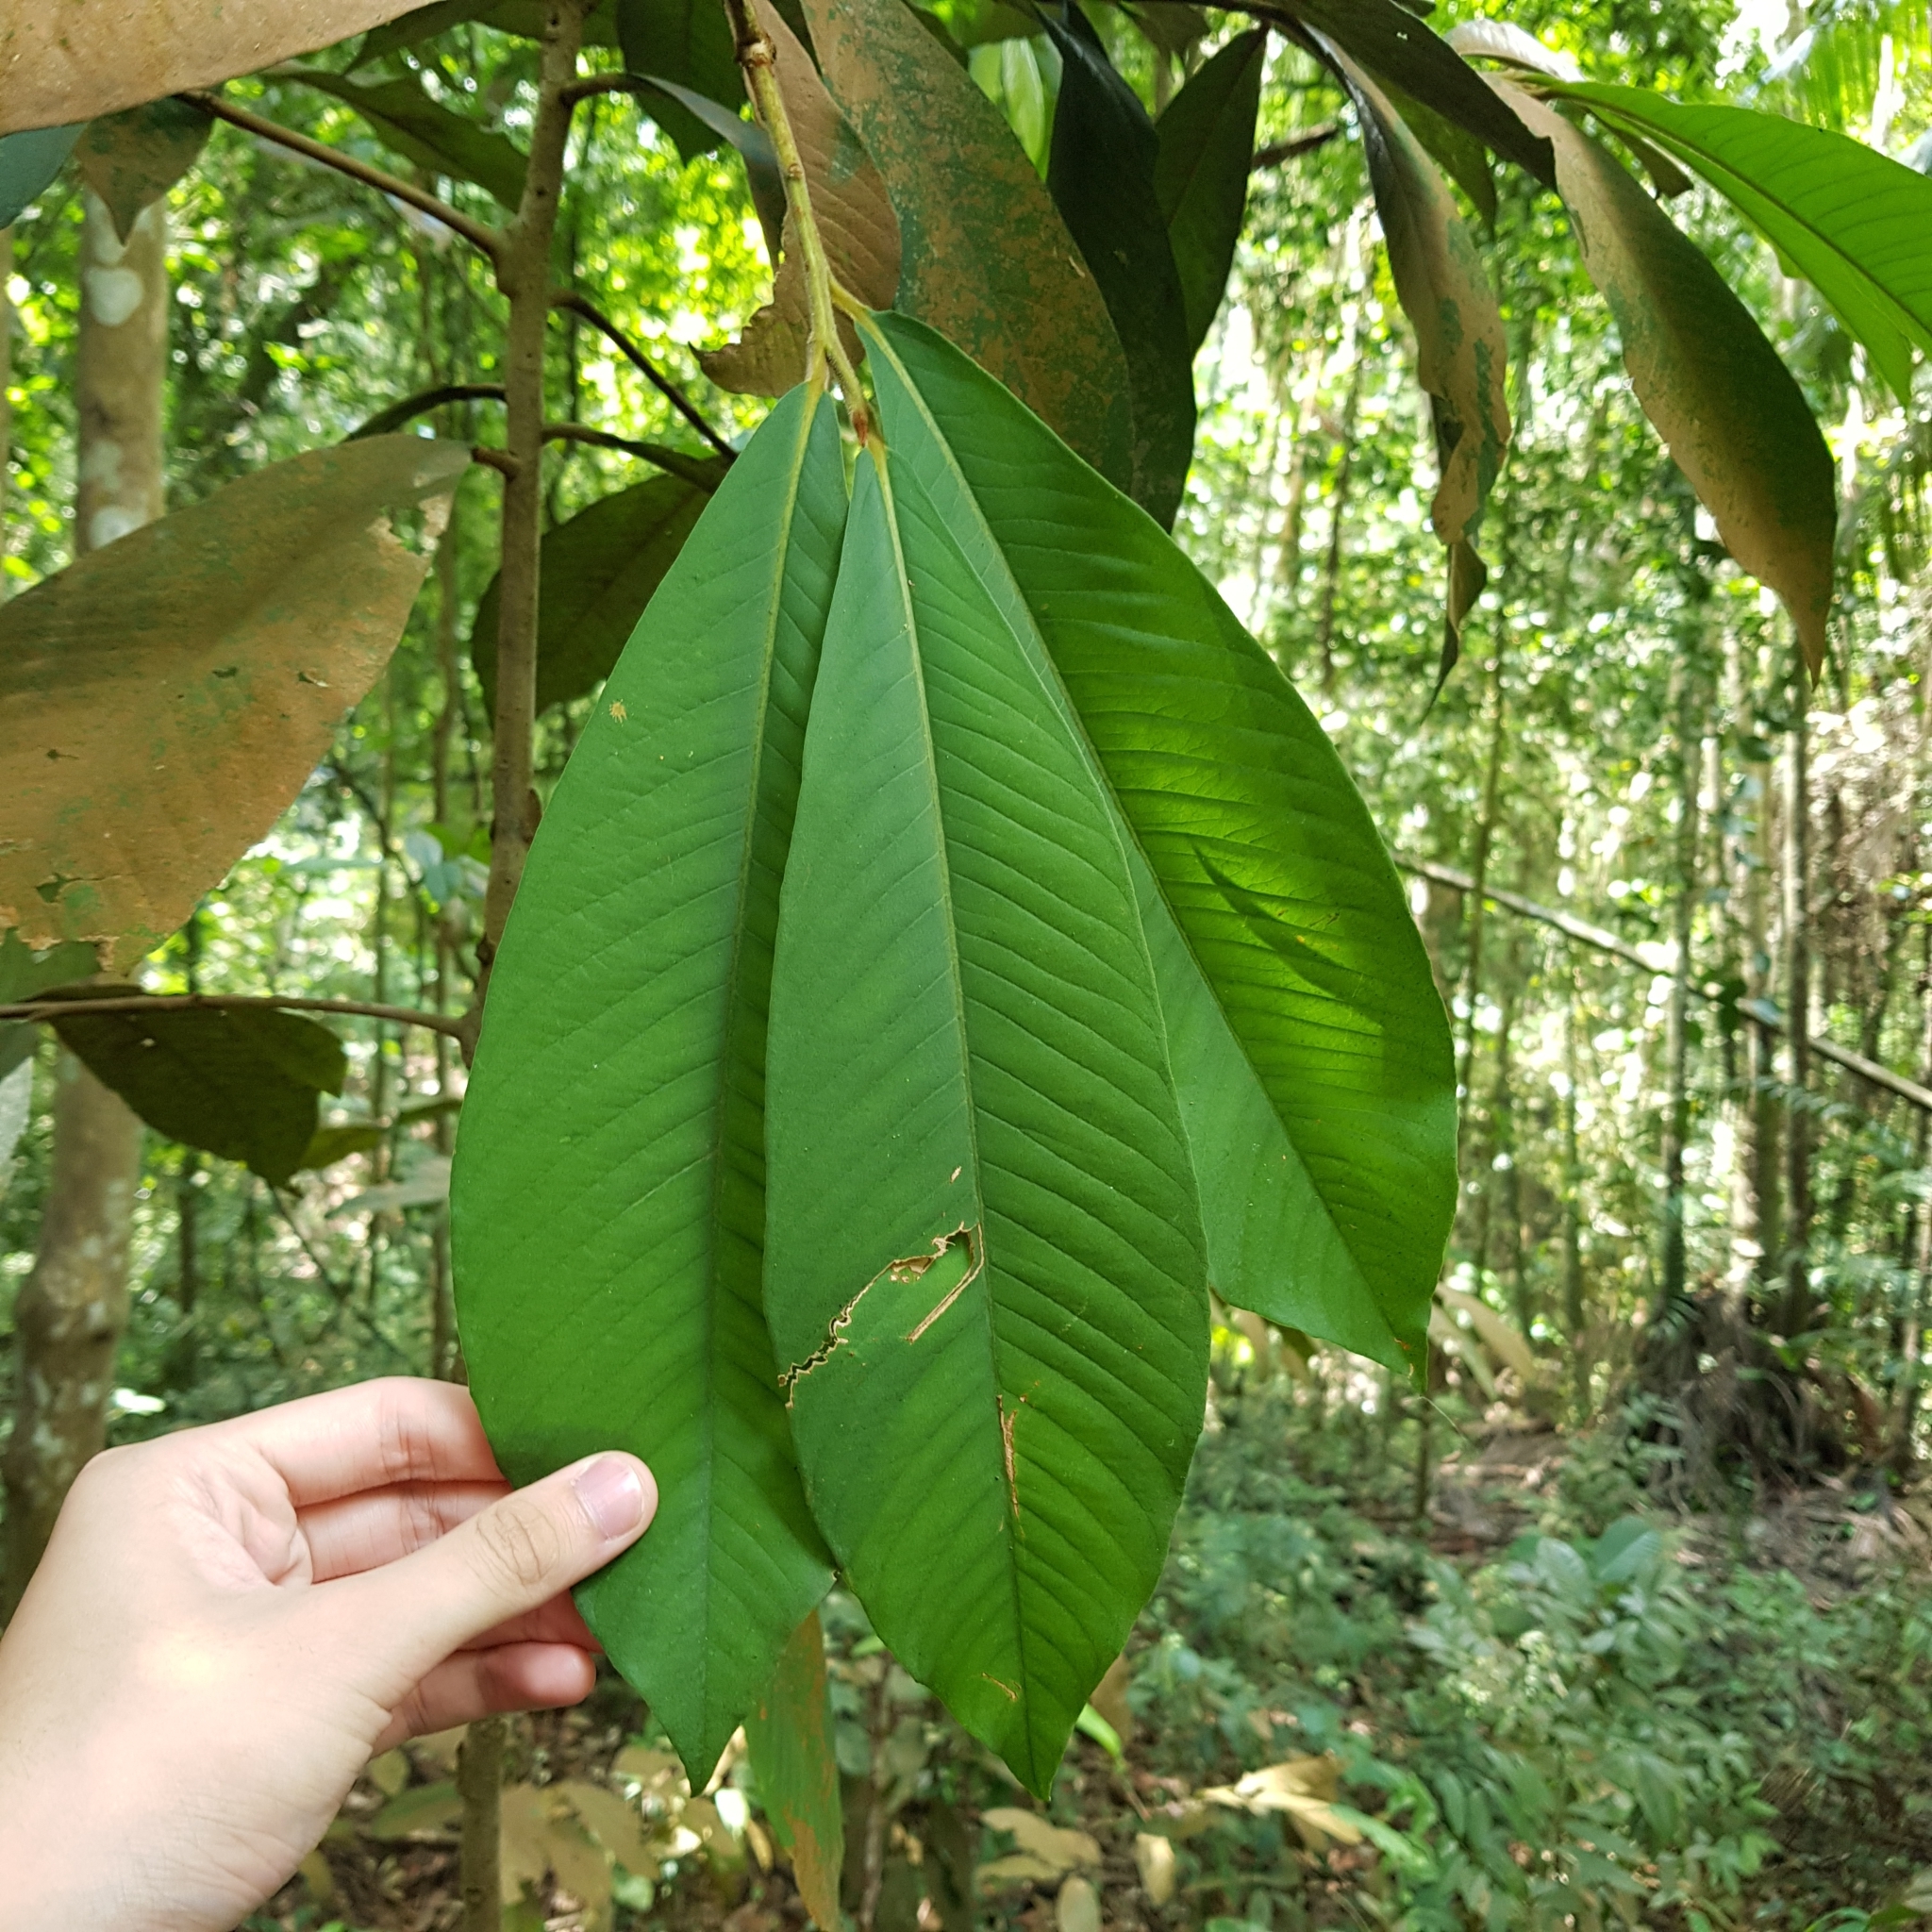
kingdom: Plantae
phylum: Tracheophyta
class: Magnoliopsida
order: Ericales
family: Primulaceae
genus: Ardisia
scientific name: Ardisia teysmanniana
